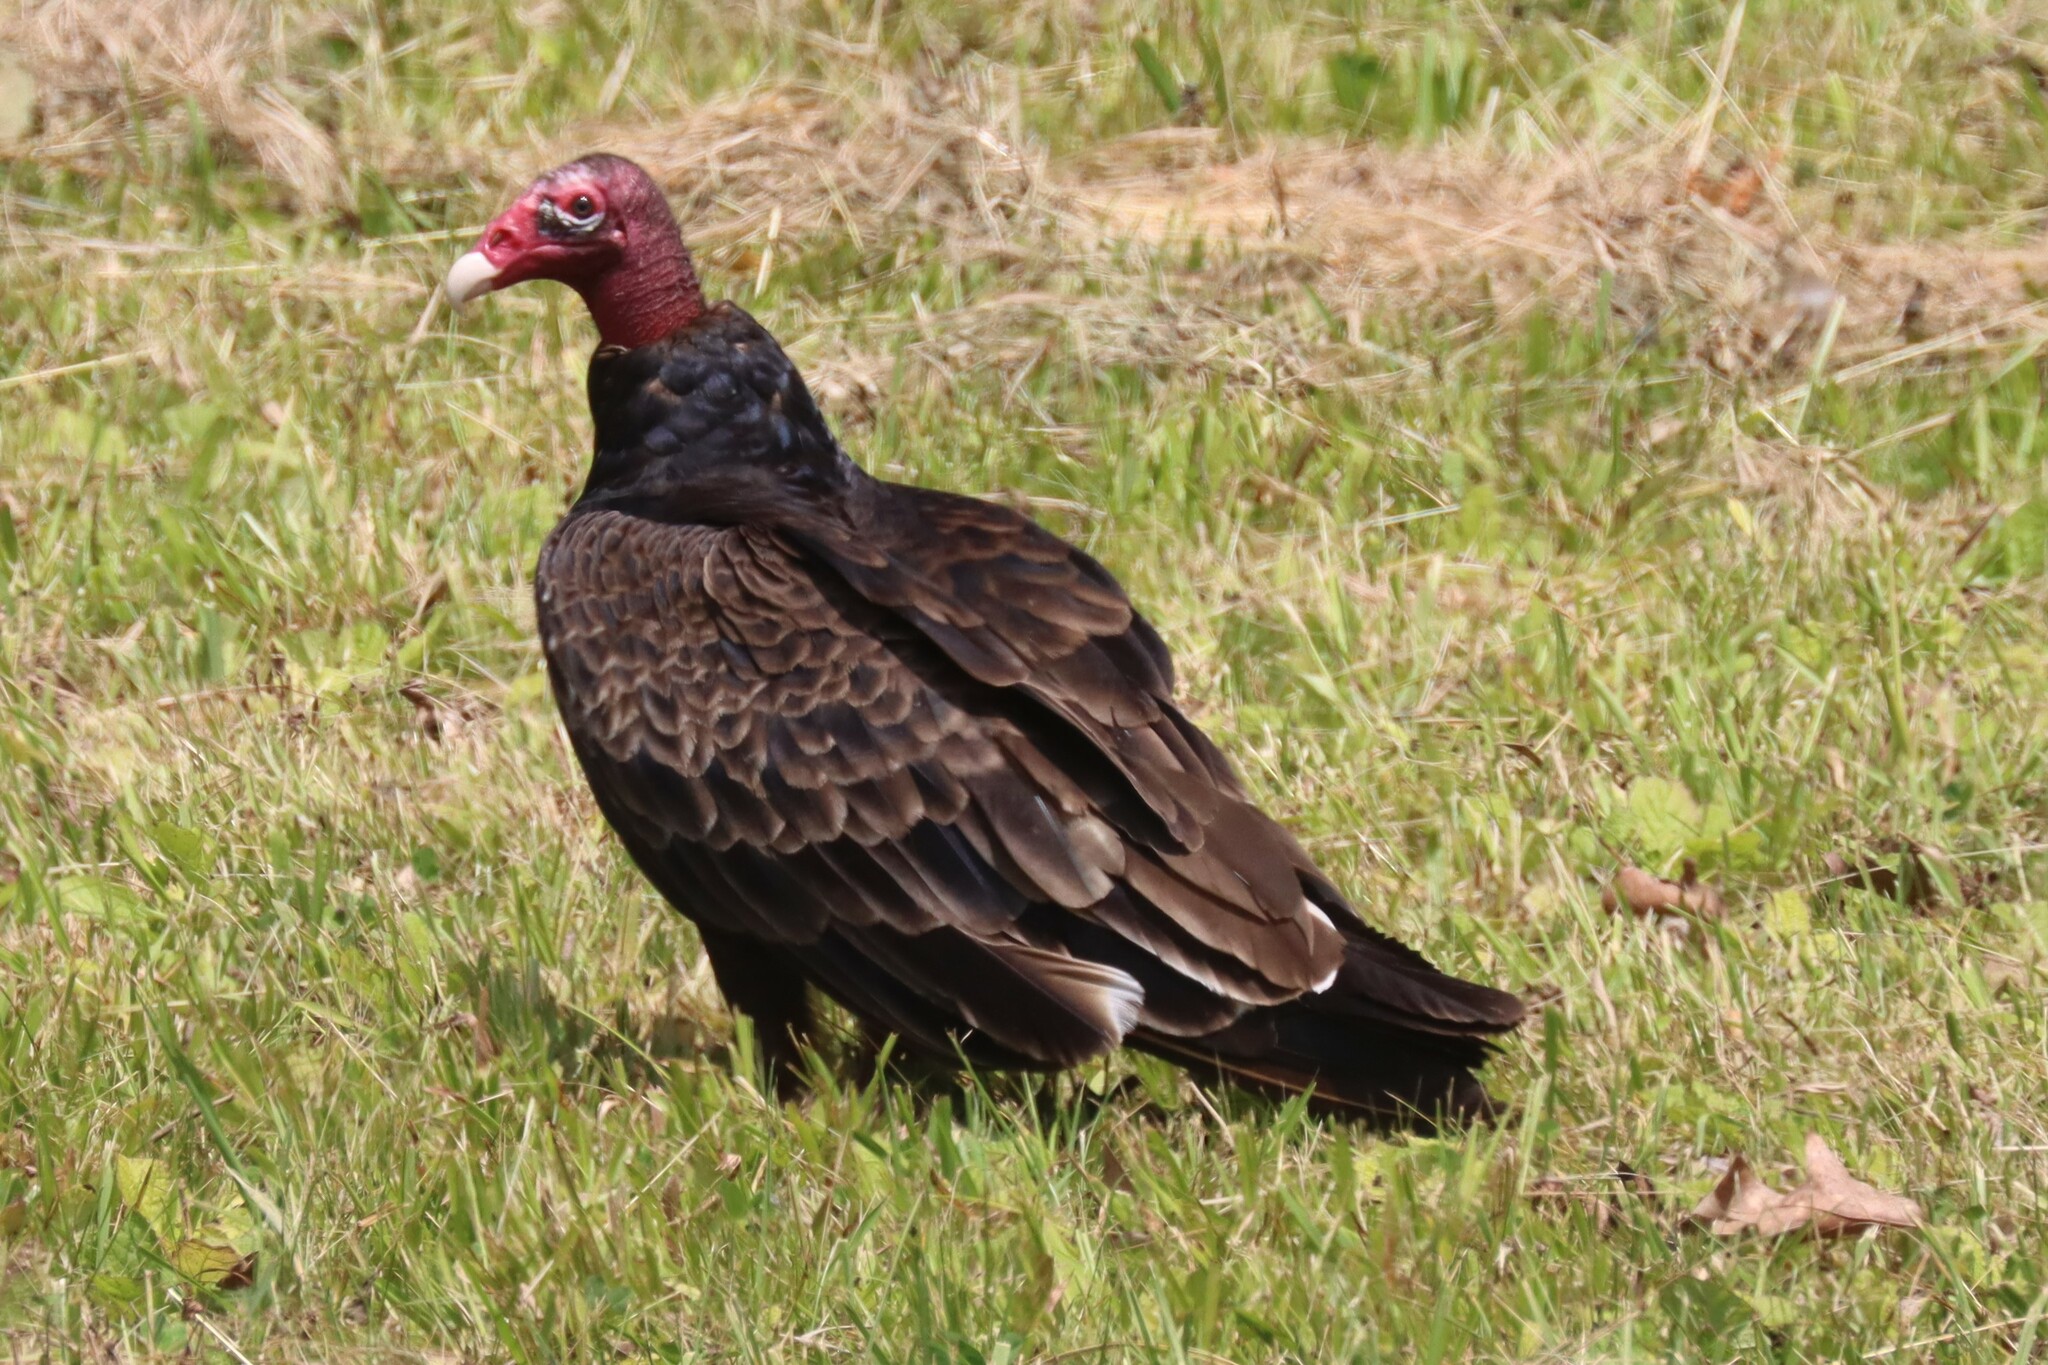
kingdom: Animalia
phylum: Chordata
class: Aves
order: Accipitriformes
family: Cathartidae
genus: Cathartes
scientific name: Cathartes aura
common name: Turkey vulture
